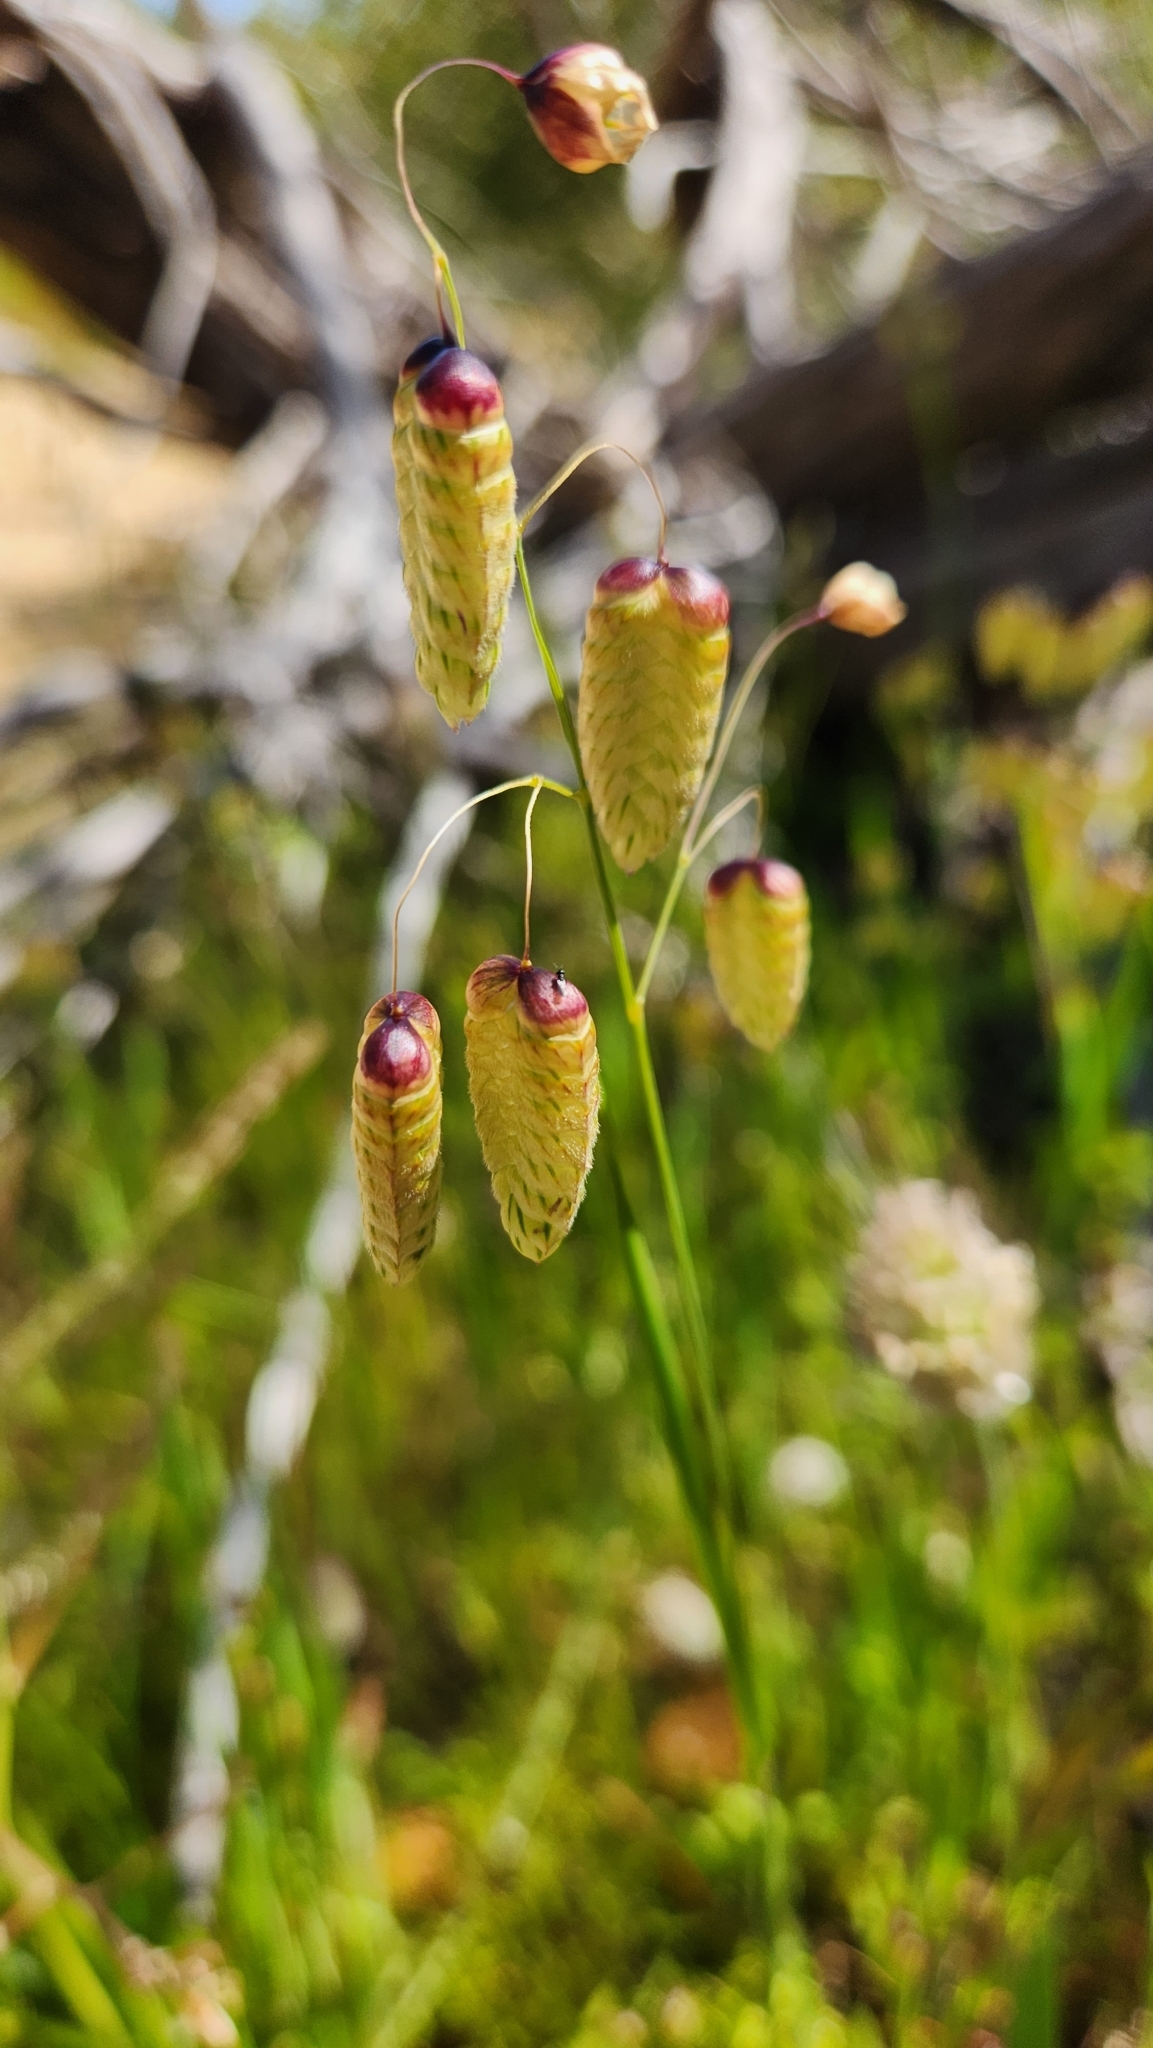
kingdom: Plantae
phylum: Tracheophyta
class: Liliopsida
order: Poales
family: Poaceae
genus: Briza
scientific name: Briza maxima
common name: Big quakinggrass
